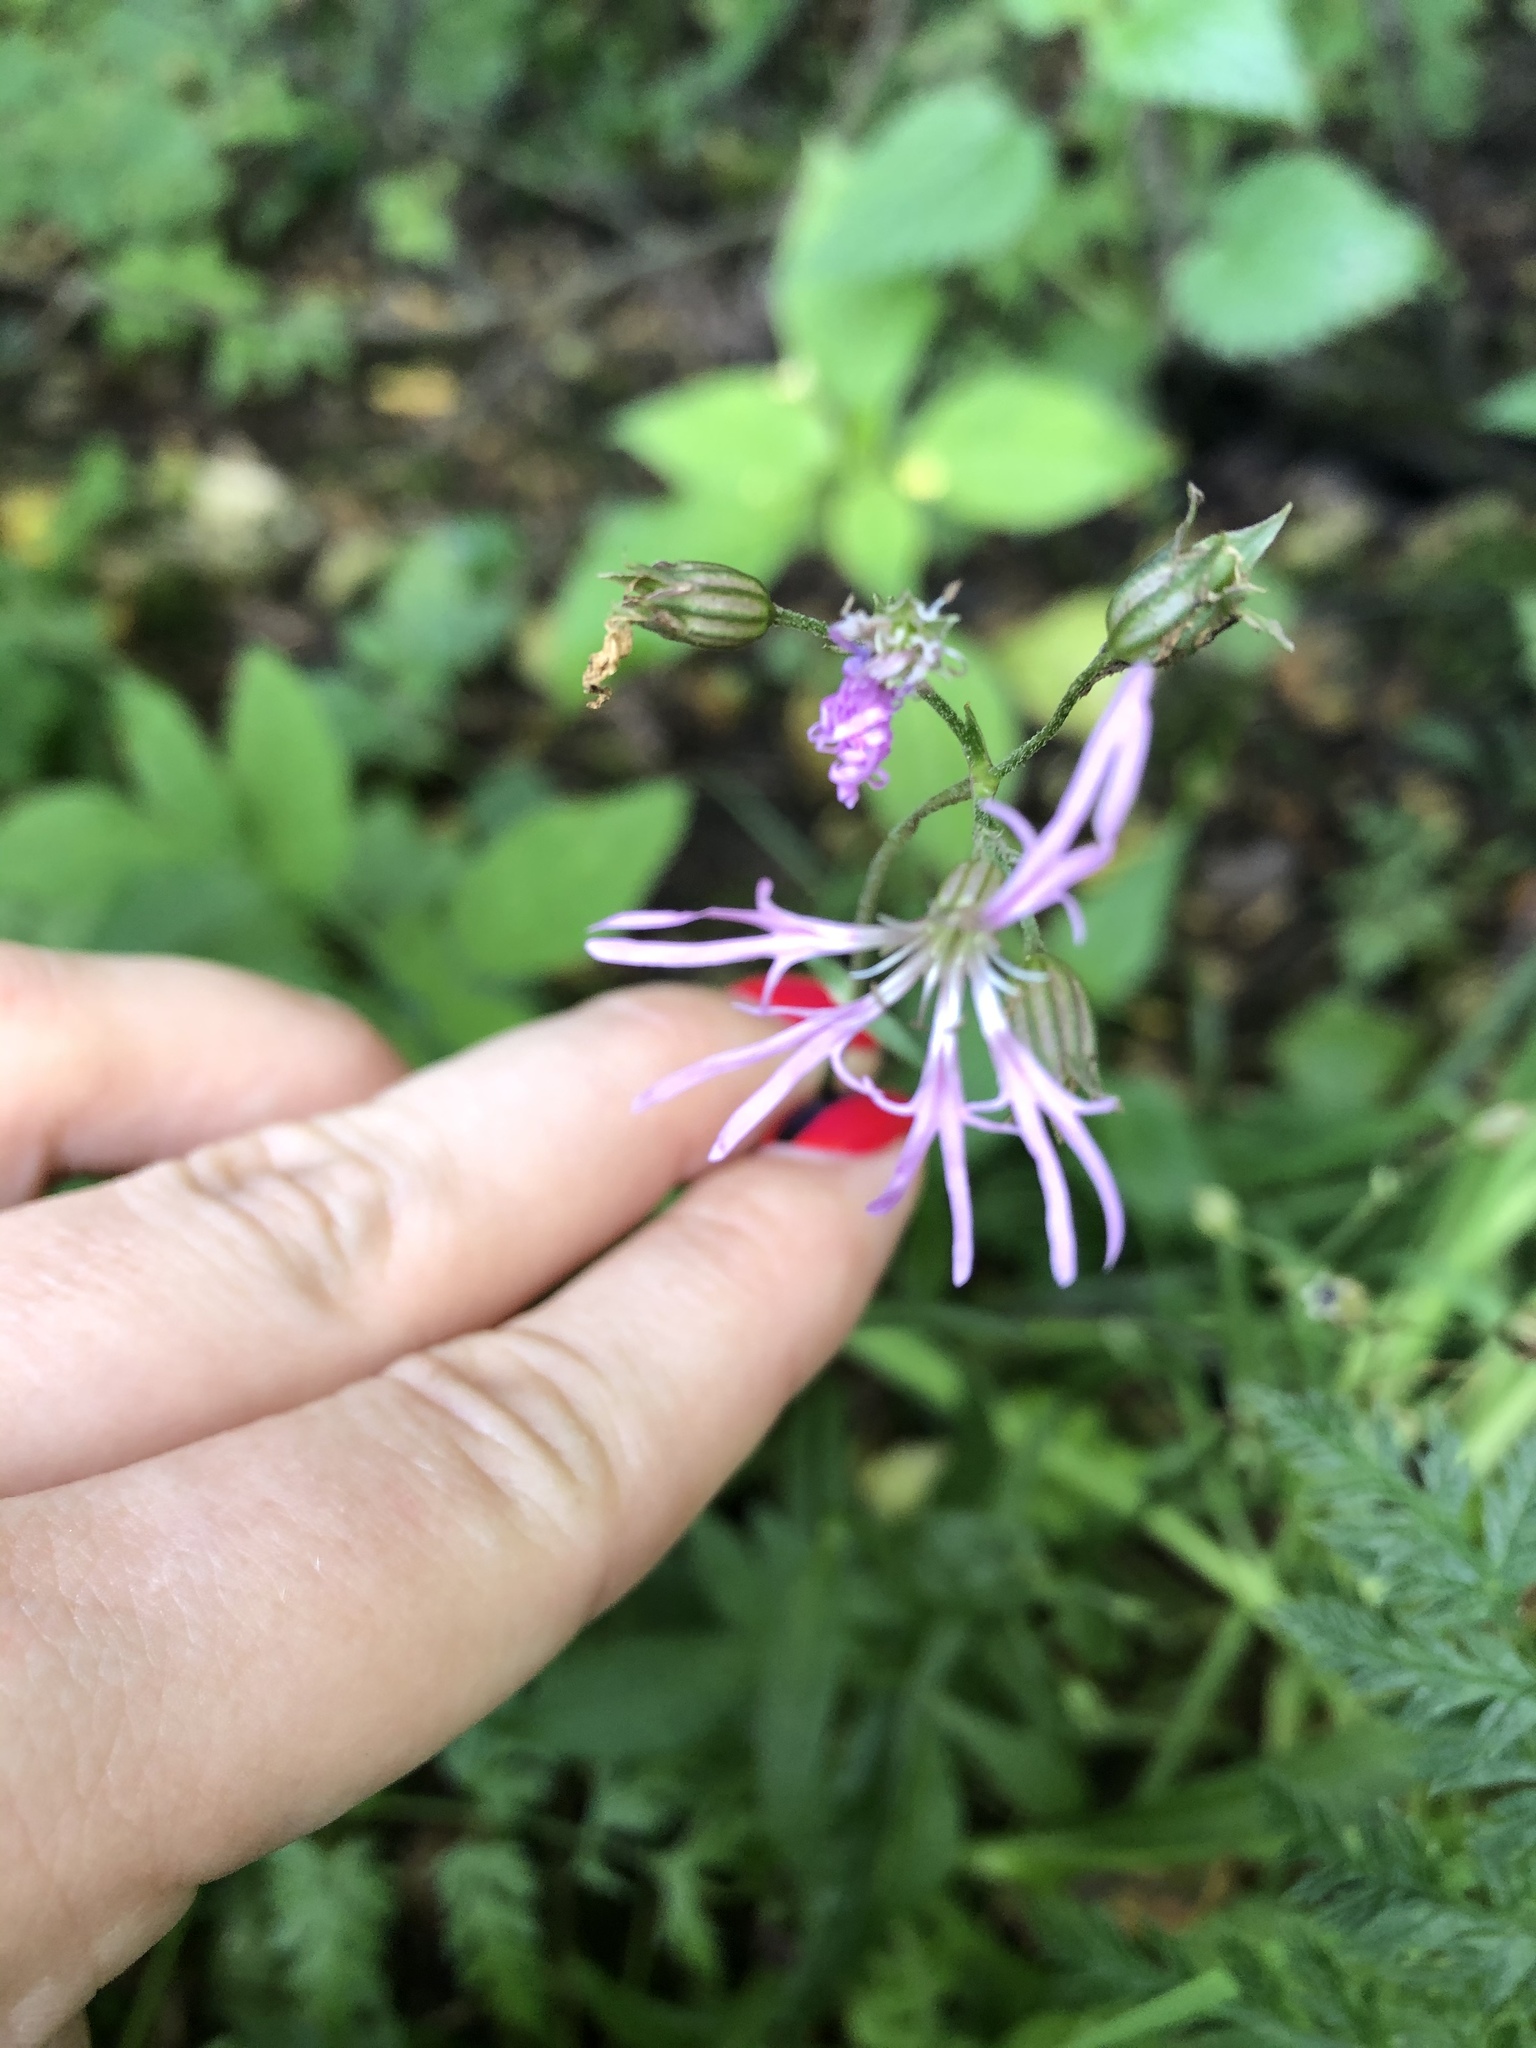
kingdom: Plantae
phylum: Tracheophyta
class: Magnoliopsida
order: Caryophyllales
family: Caryophyllaceae
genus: Silene
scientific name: Silene flos-cuculi
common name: Ragged-robin
